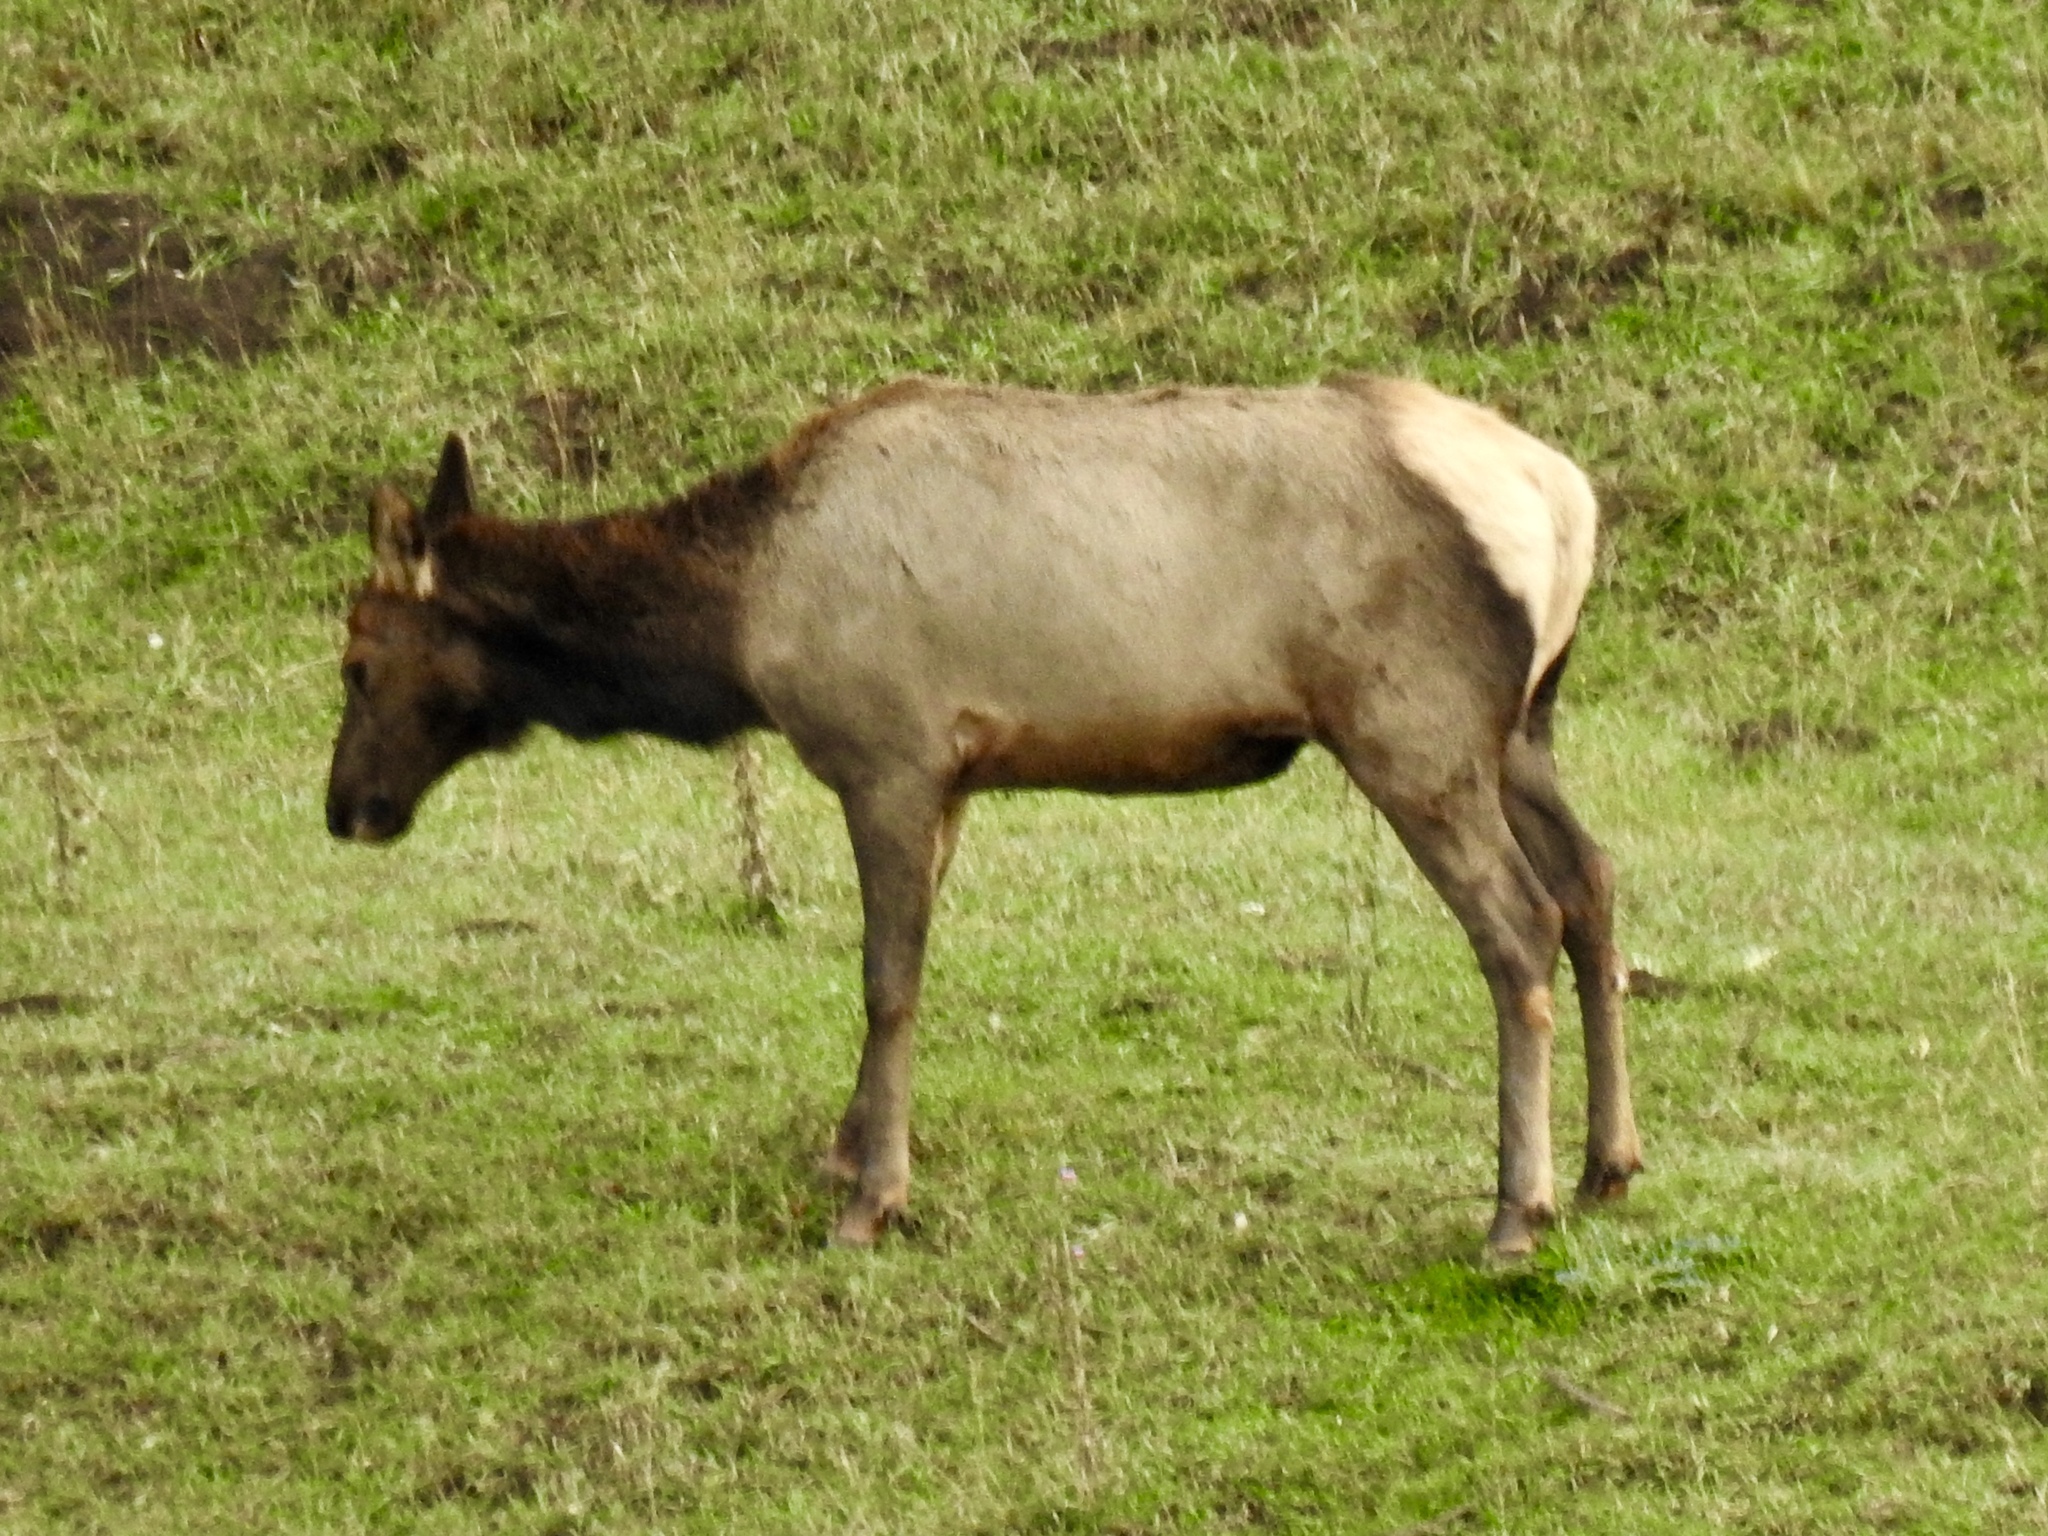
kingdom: Animalia
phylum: Chordata
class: Mammalia
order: Artiodactyla
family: Cervidae
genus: Cervus
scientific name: Cervus elaphus
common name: Red deer
